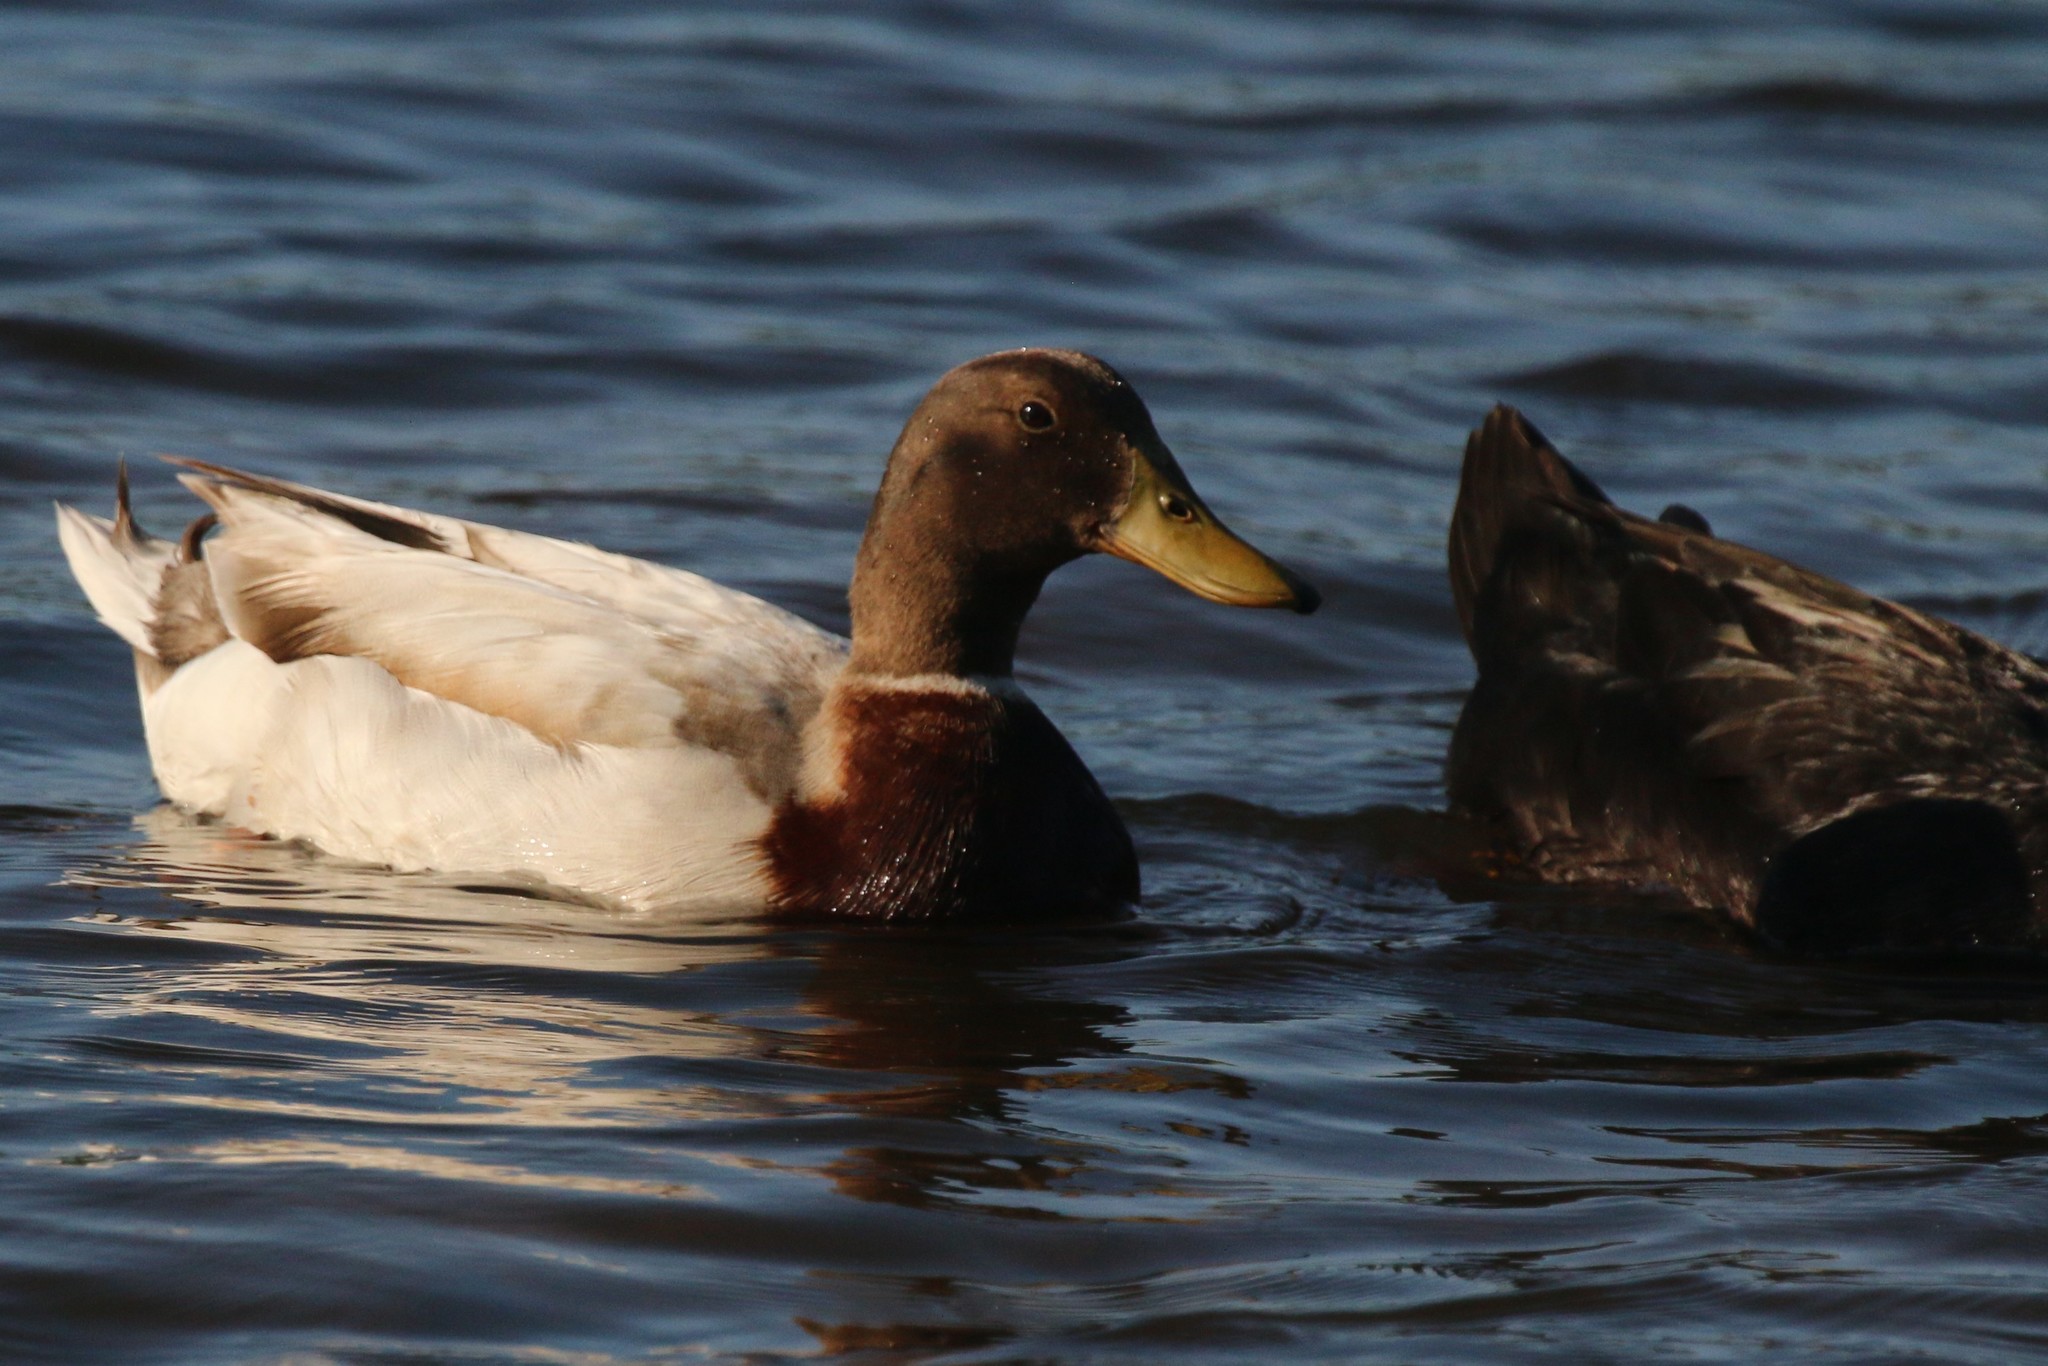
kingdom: Animalia
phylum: Chordata
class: Aves
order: Anseriformes
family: Anatidae
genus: Anas
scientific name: Anas platyrhynchos
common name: Mallard
